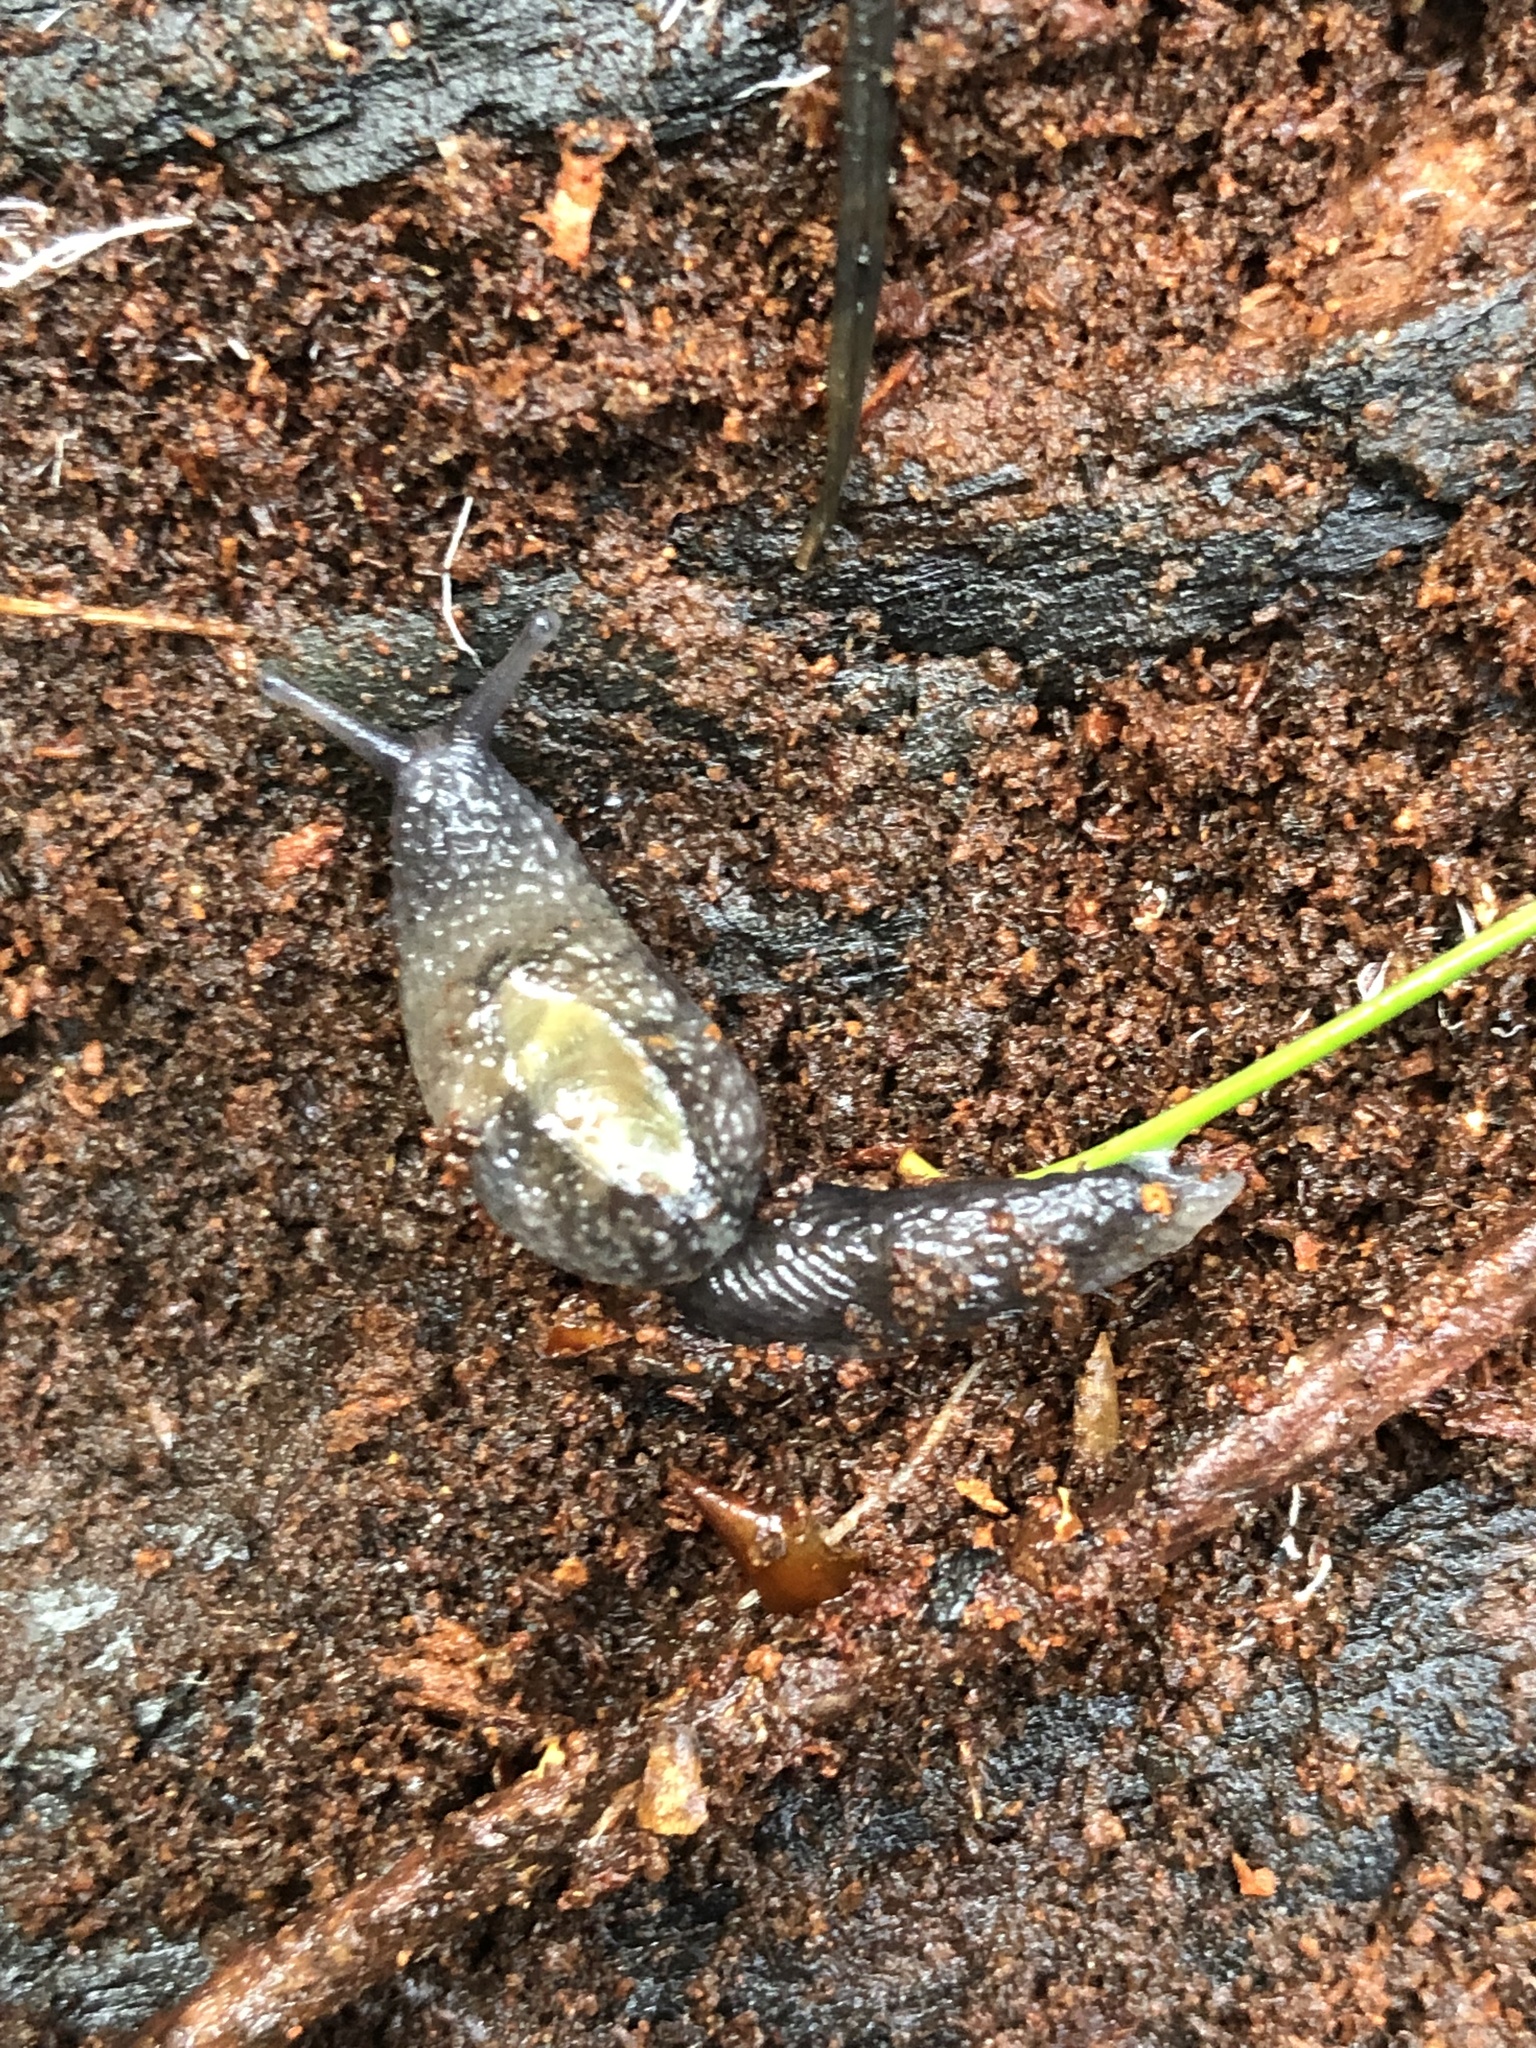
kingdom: Animalia
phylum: Mollusca
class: Gastropoda
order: Stylommatophora
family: Binneyidae
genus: Hemphillia
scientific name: Hemphillia dromedarius
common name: Dromedary jumping slug
